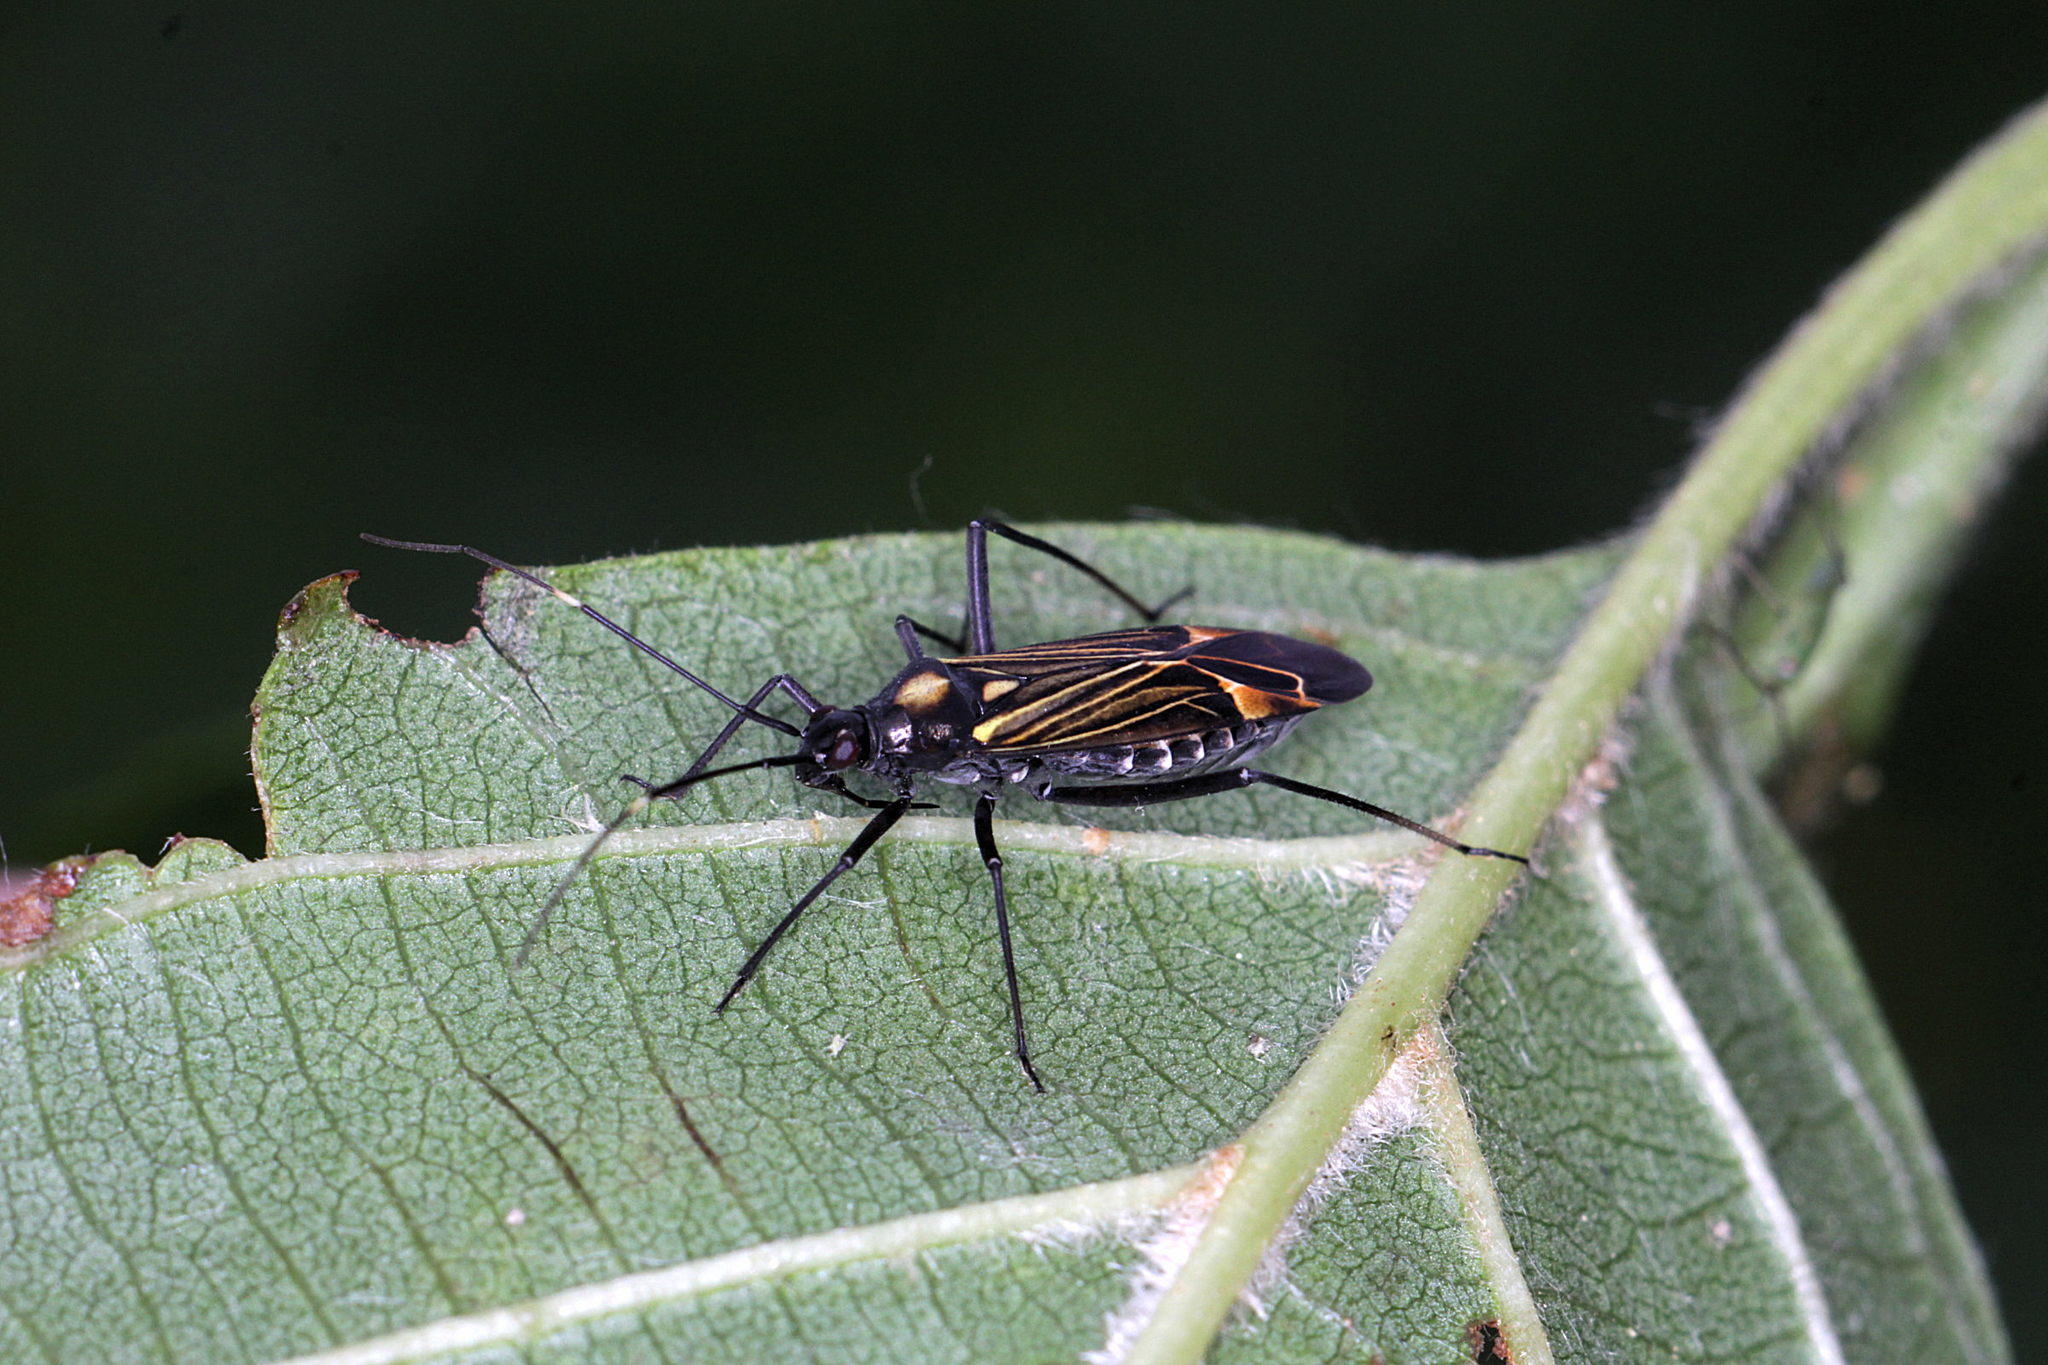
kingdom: Animalia
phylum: Arthropoda
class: Insecta
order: Hemiptera
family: Miridae
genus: Miris
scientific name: Miris striatus
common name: Fine streaked bugkin
